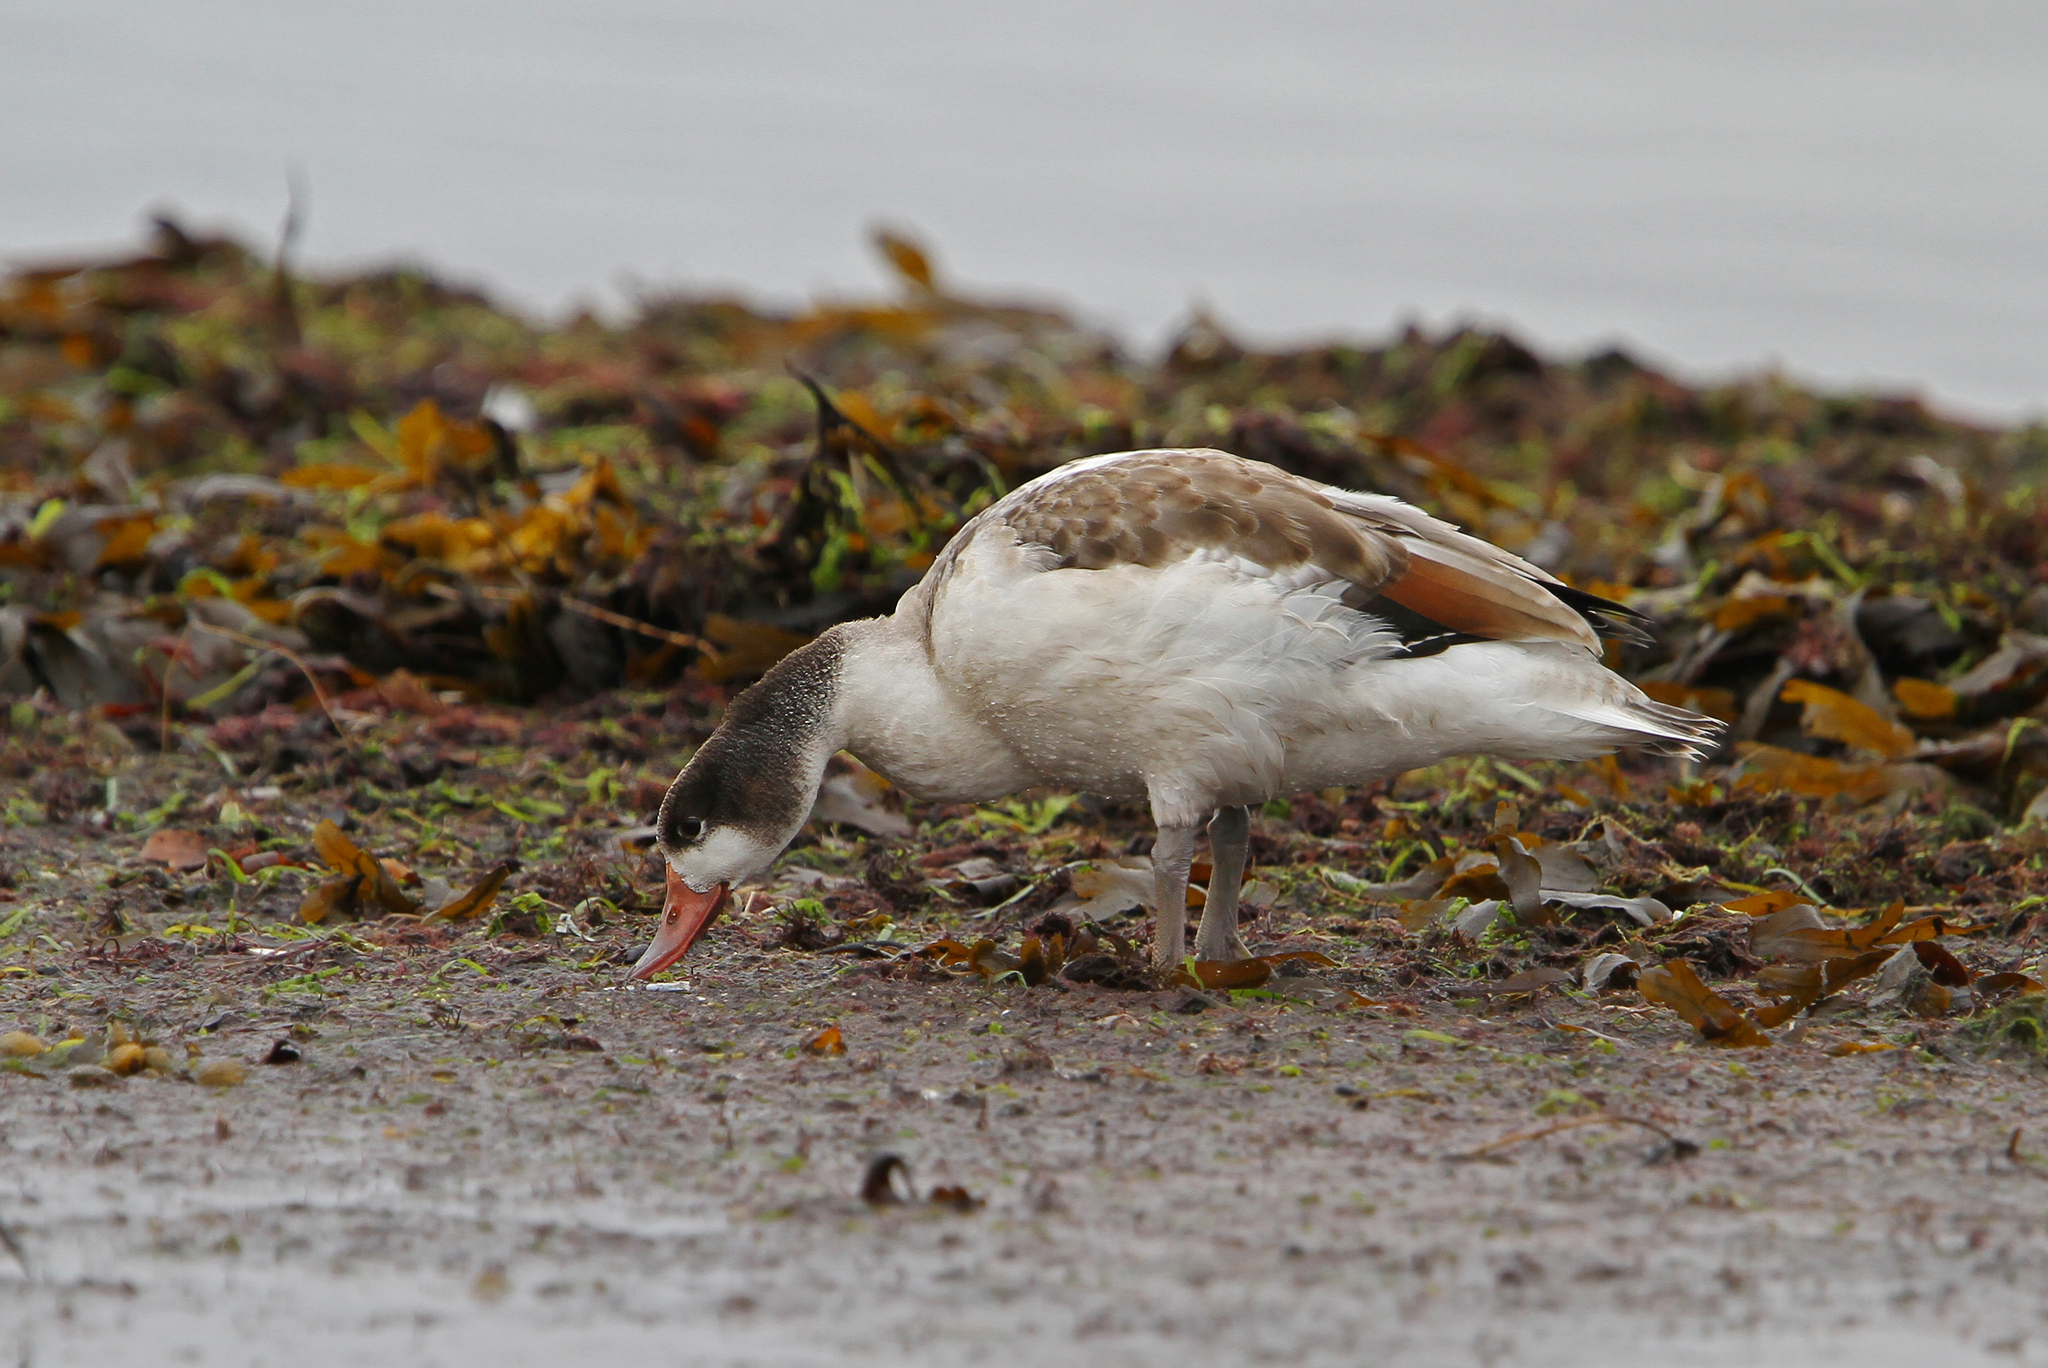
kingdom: Animalia
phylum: Chordata
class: Aves
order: Anseriformes
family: Anatidae
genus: Tadorna
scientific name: Tadorna tadorna
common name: Common shelduck
